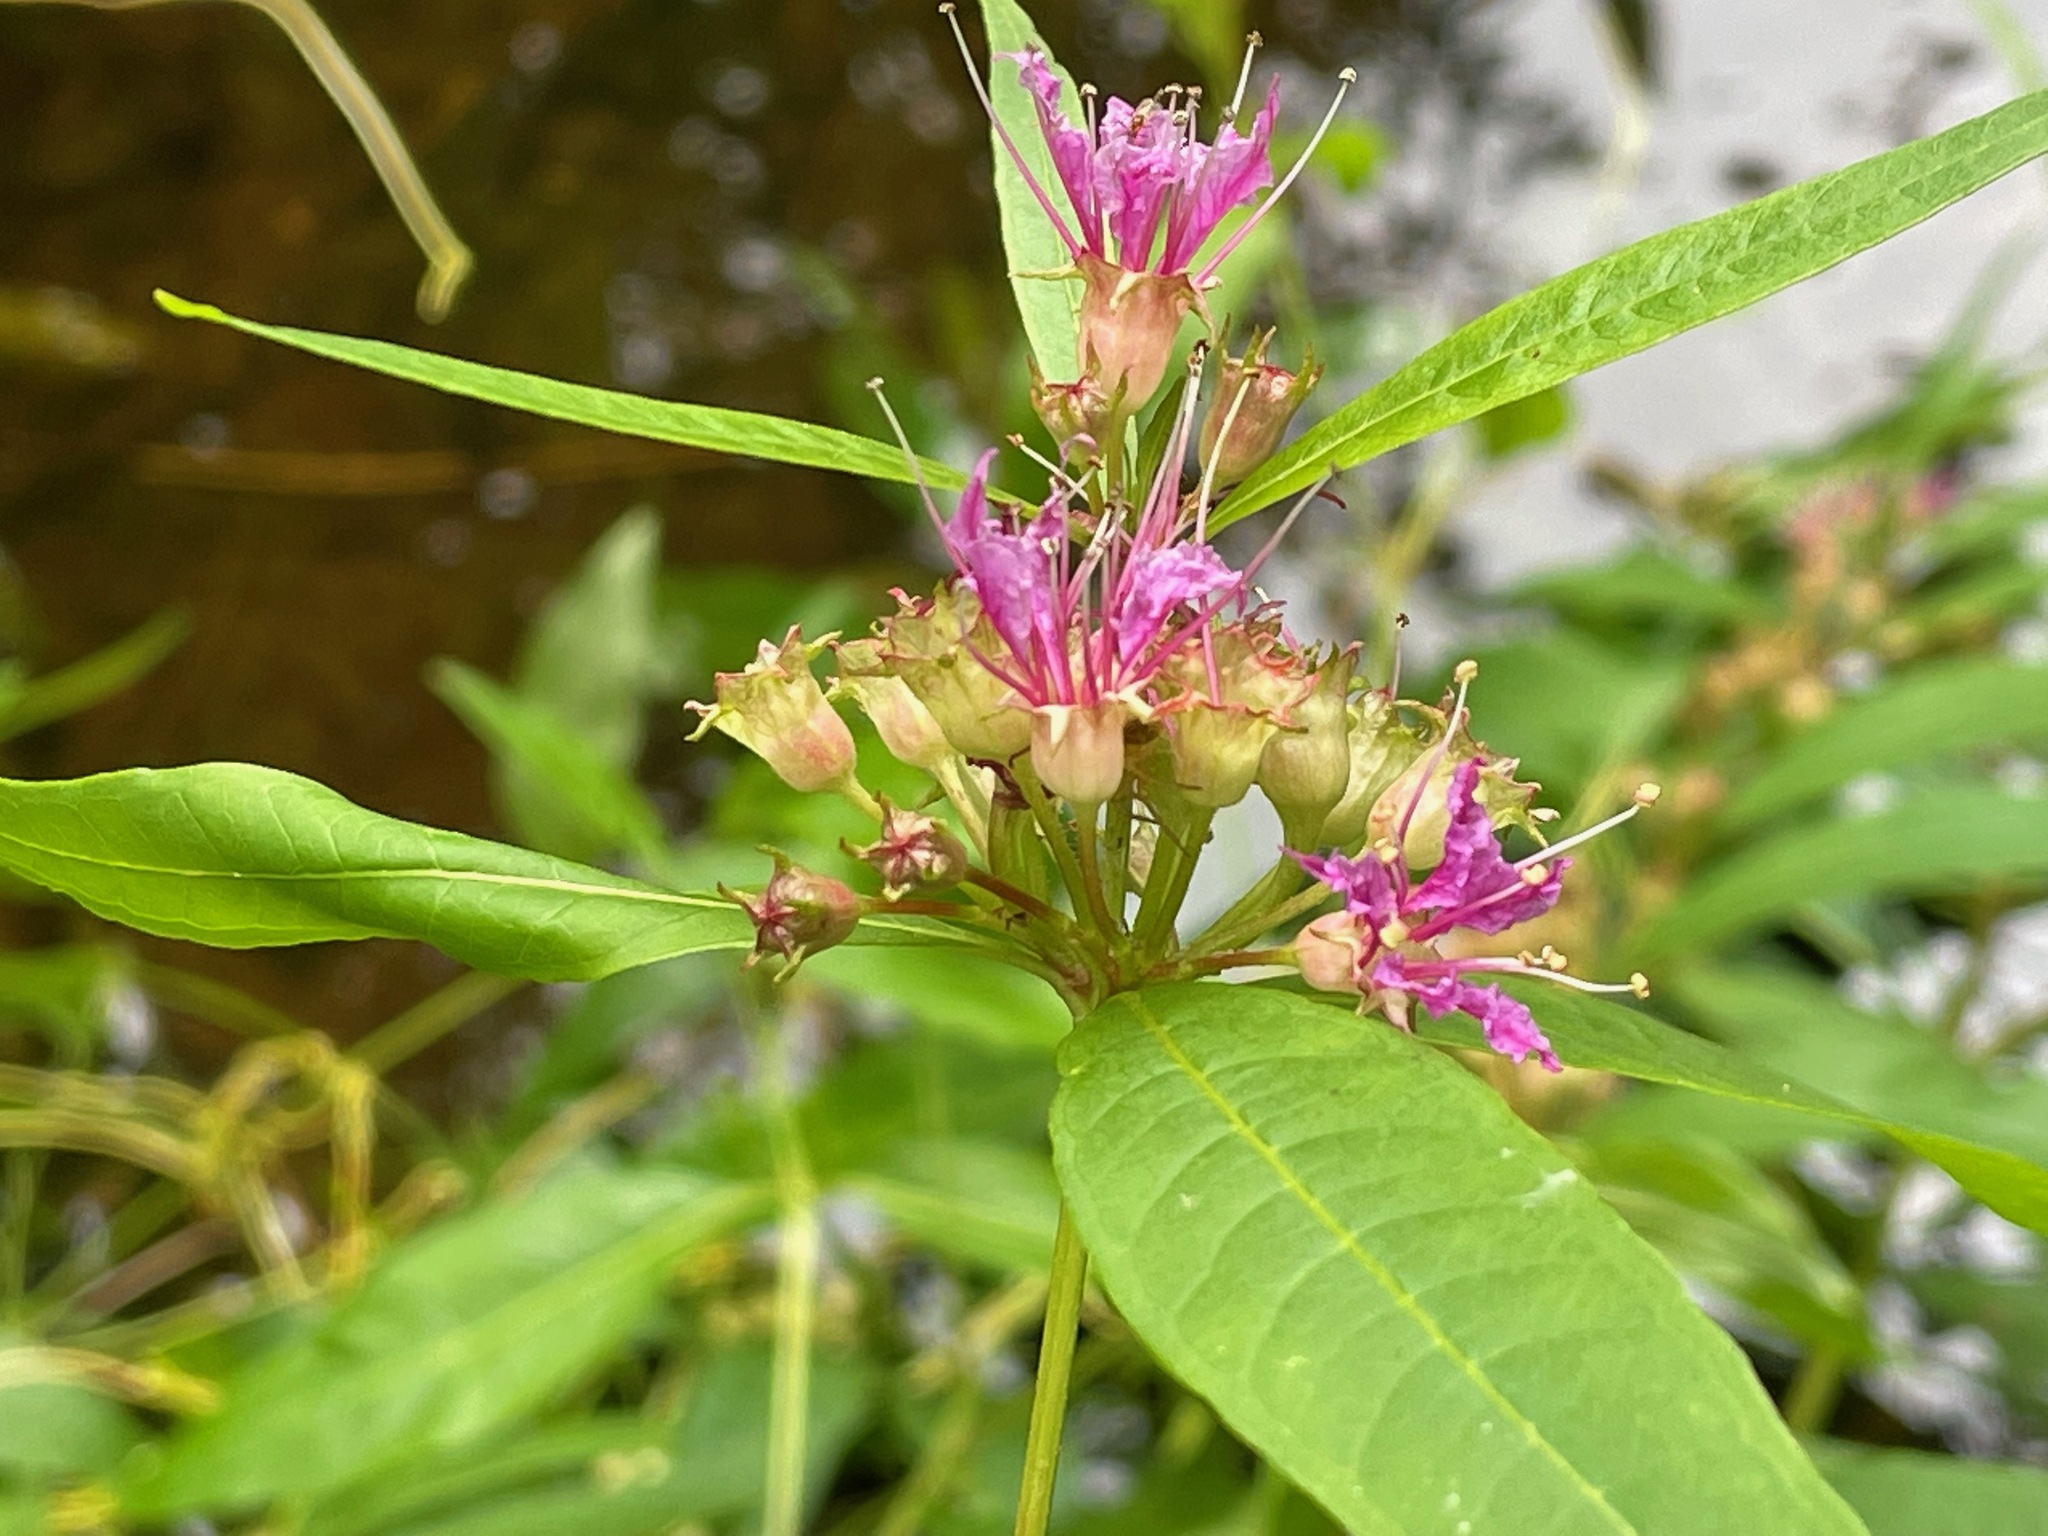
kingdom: Plantae
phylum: Tracheophyta
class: Magnoliopsida
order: Myrtales
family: Lythraceae
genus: Decodon
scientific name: Decodon verticillatus
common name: Hairy swamp loosestrife
